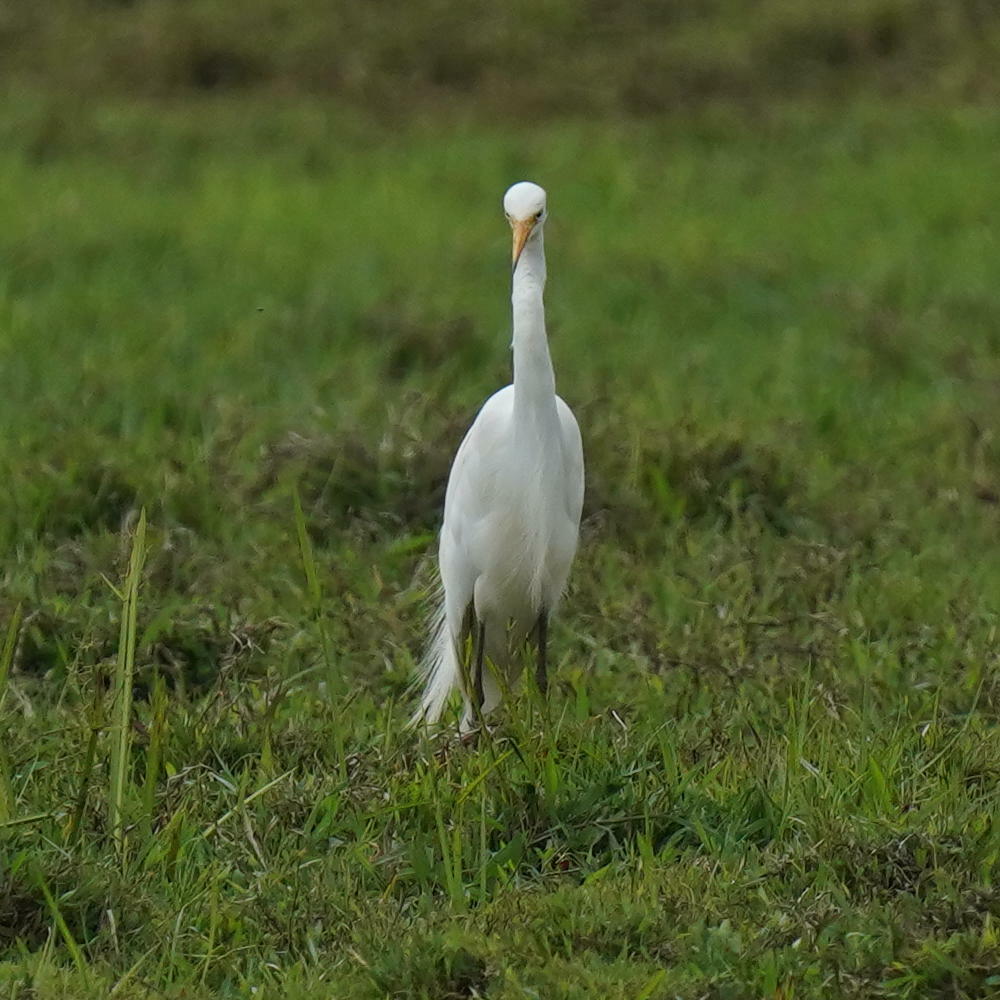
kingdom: Animalia
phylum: Chordata
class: Aves
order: Pelecaniformes
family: Ardeidae
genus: Egretta
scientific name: Egretta intermedia
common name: Intermediate egret
